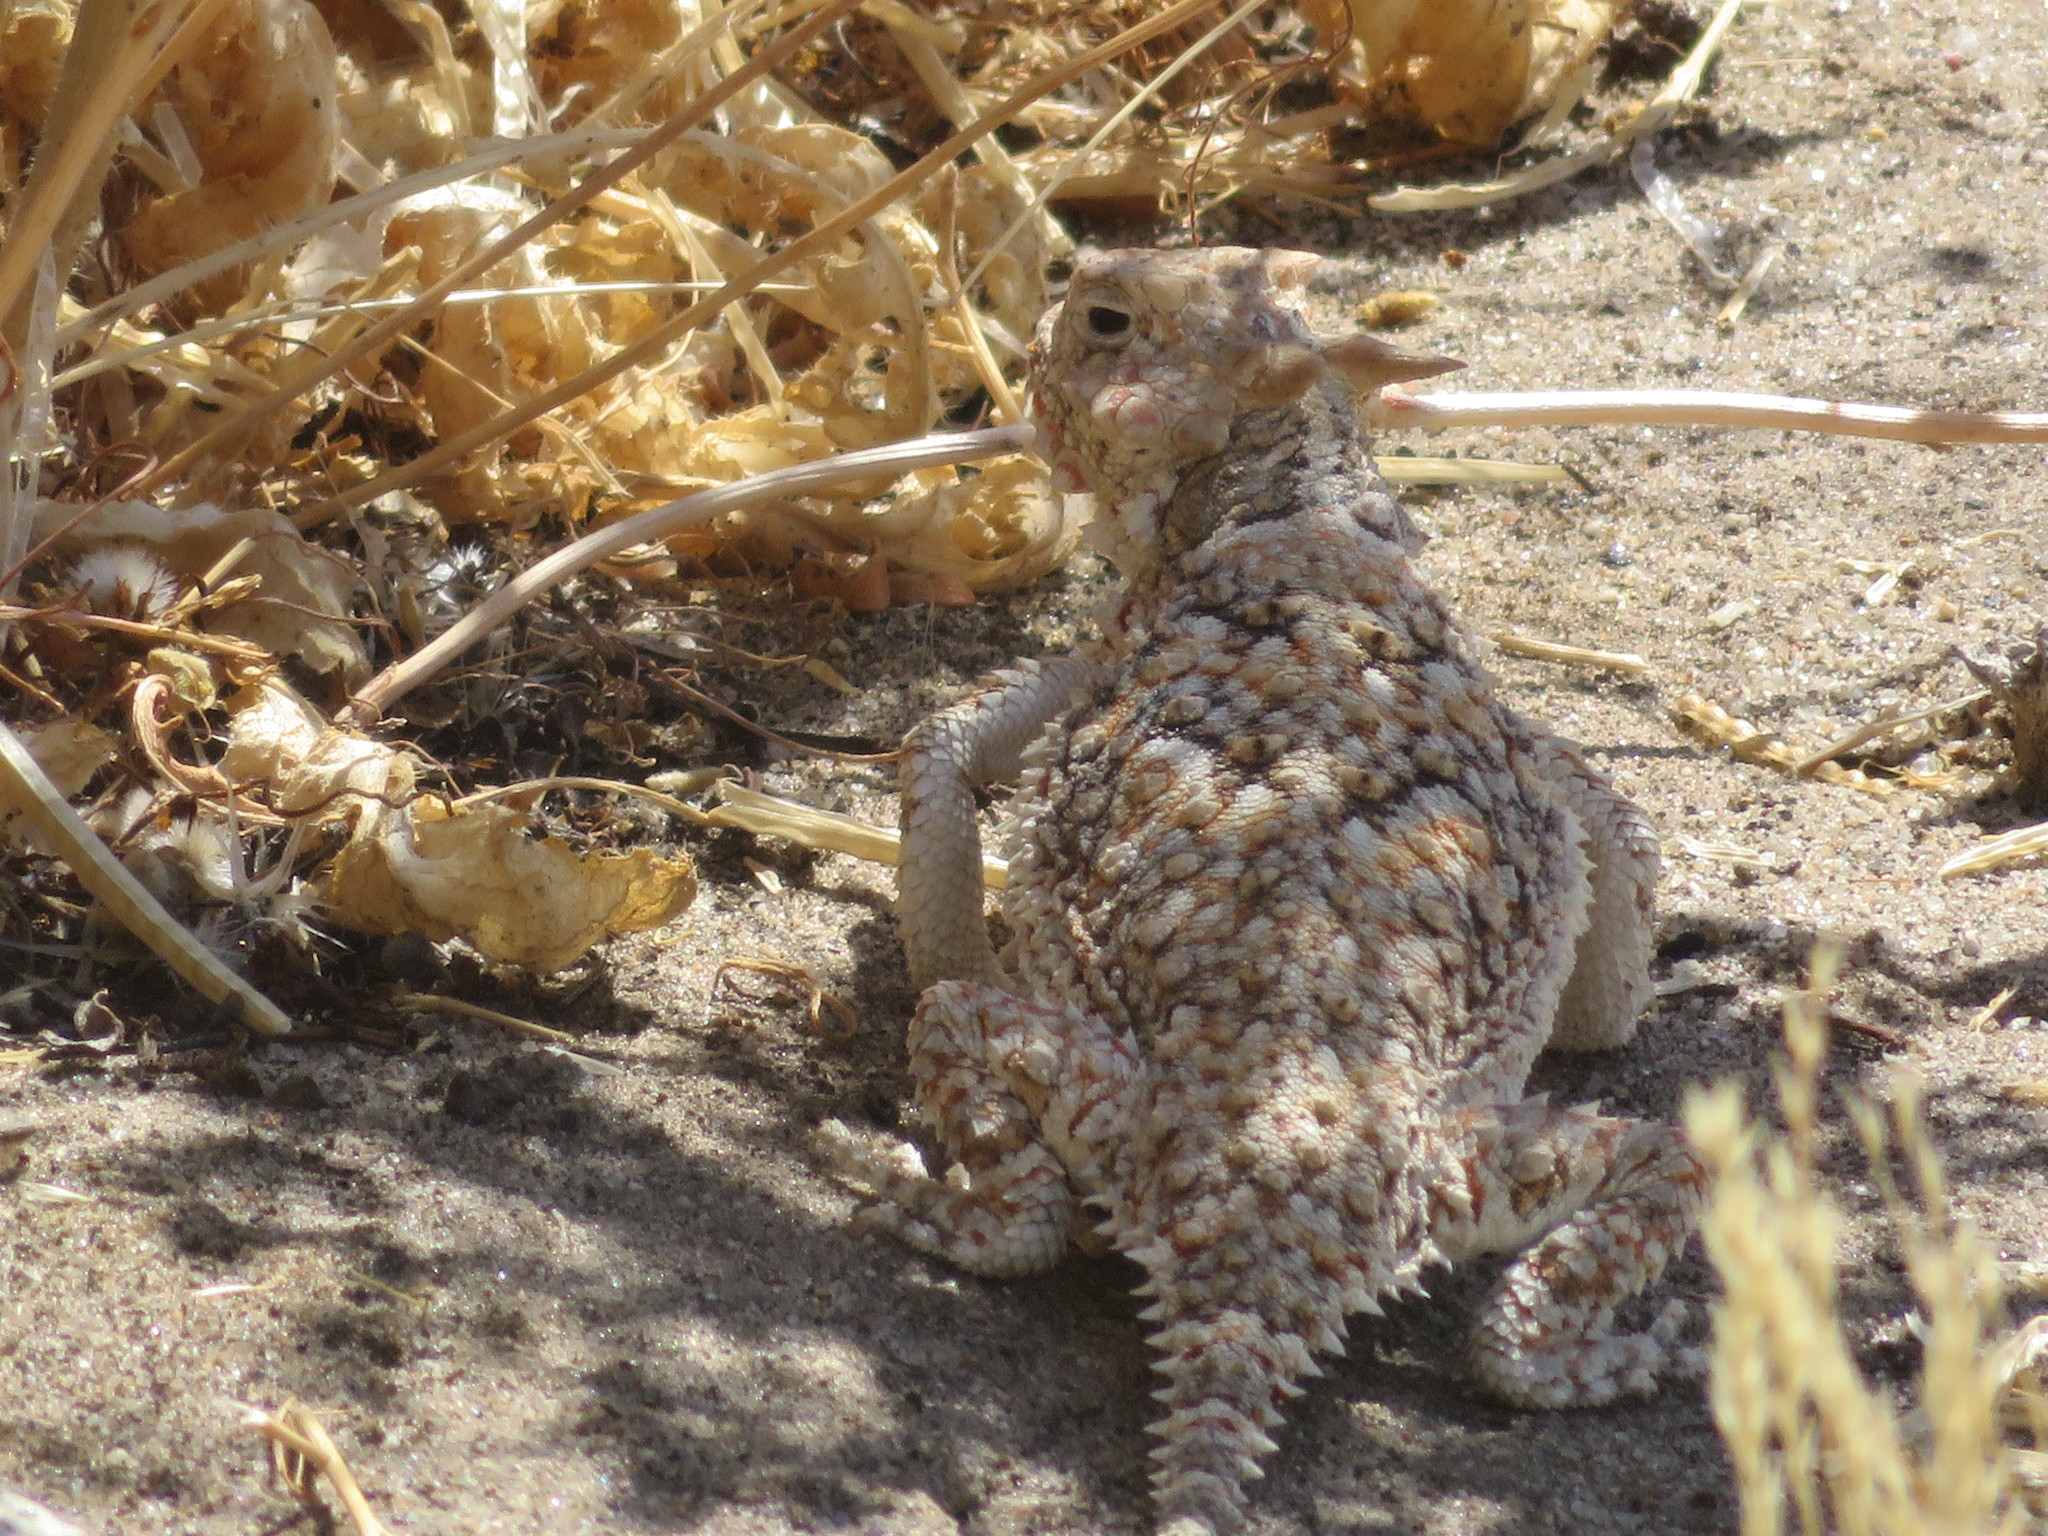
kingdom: Animalia
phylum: Chordata
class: Squamata
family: Phrynosomatidae
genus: Phrynosoma
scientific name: Phrynosoma platyrhinos
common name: Desert horned lizard
